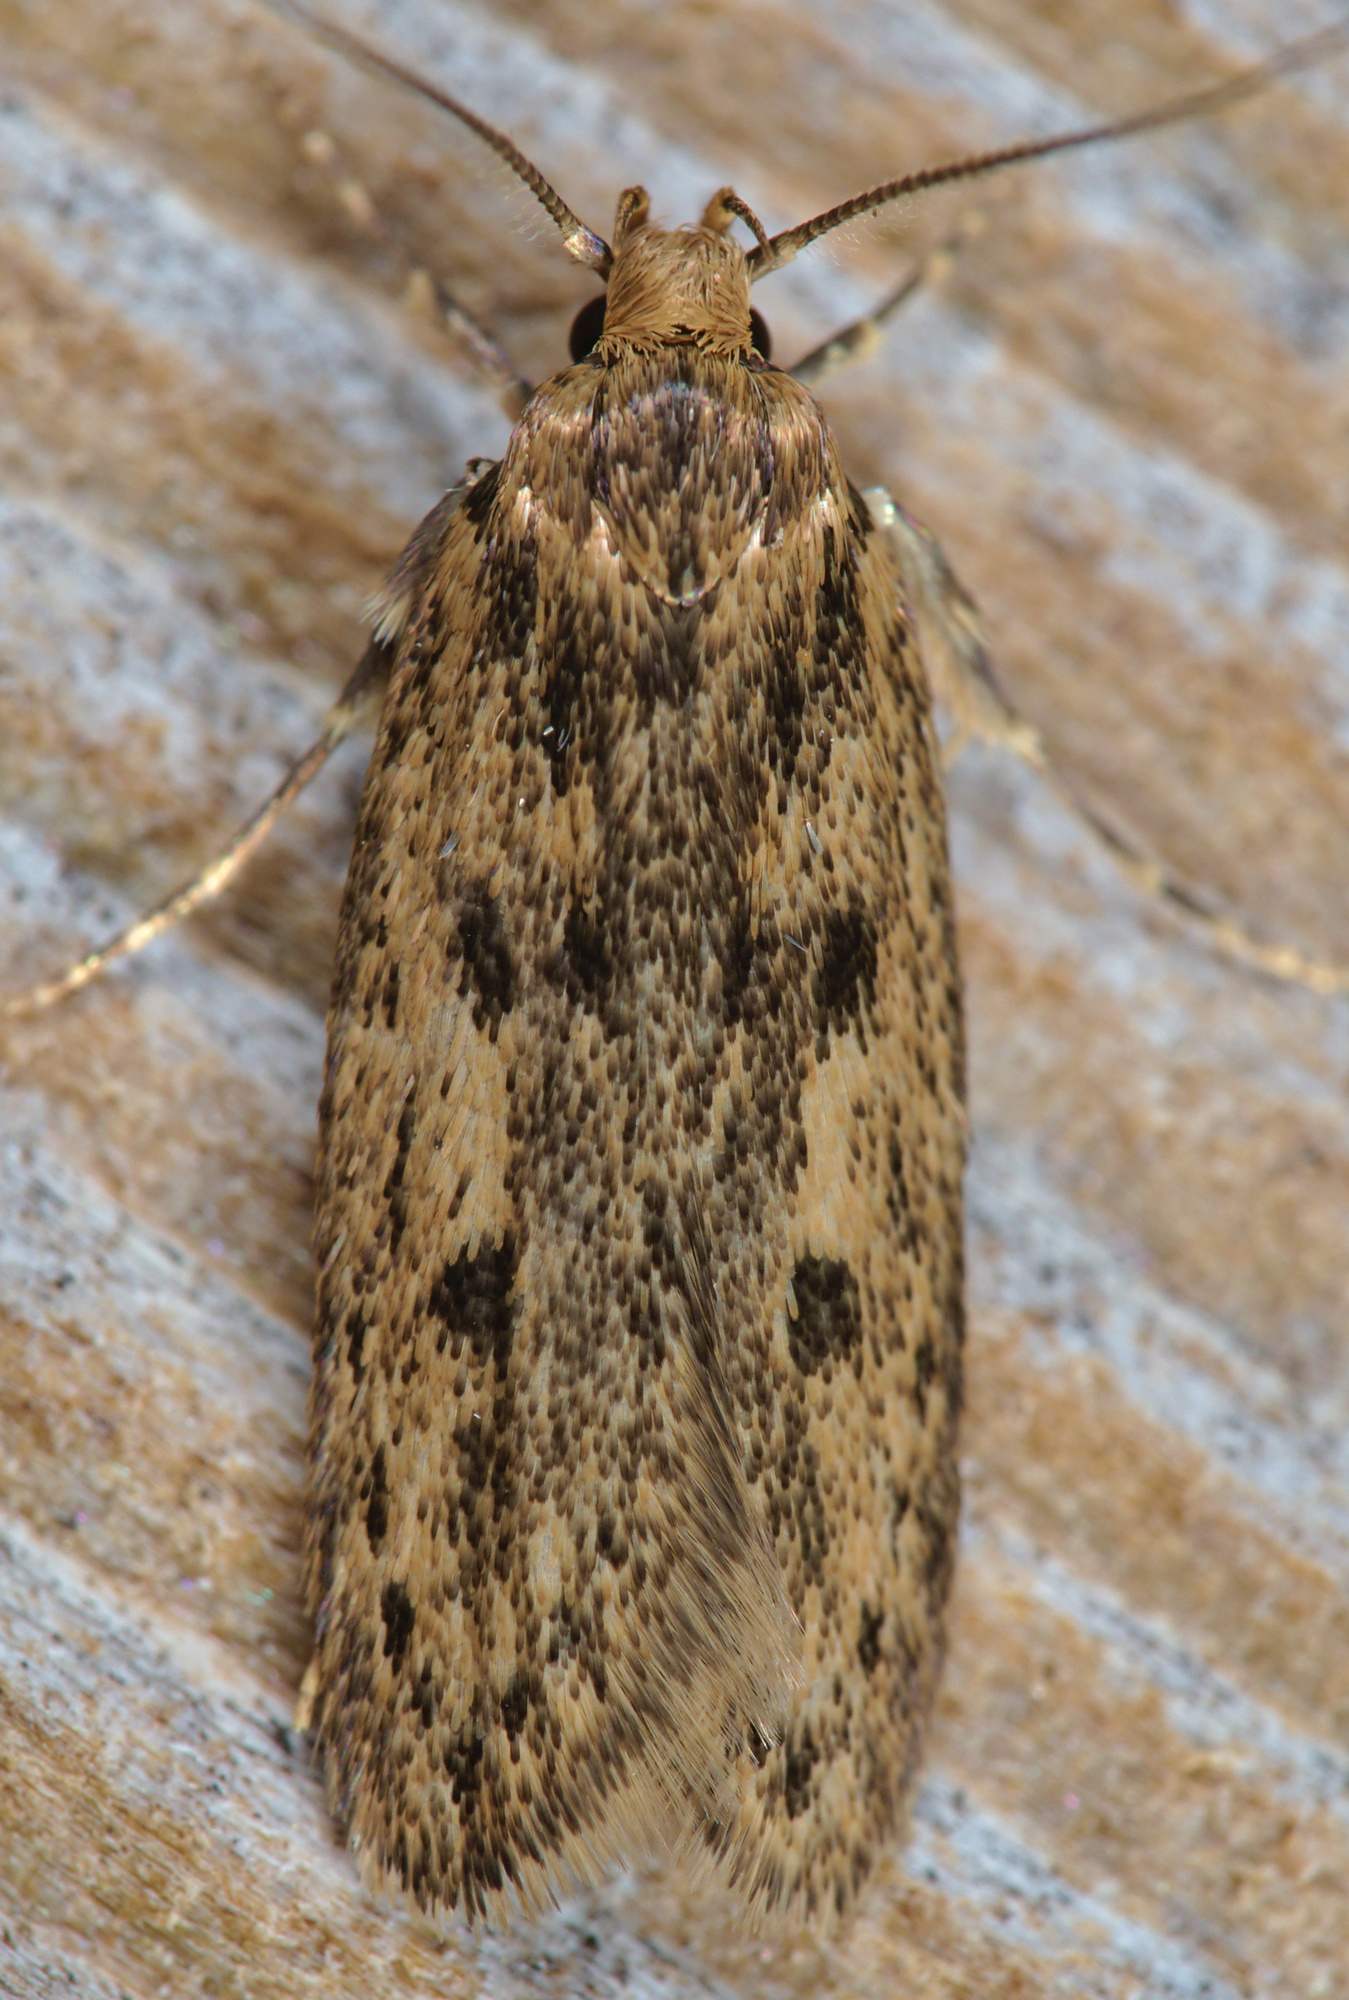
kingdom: Animalia
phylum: Arthropoda
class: Insecta
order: Lepidoptera
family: Oecophoridae
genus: Hofmannophila
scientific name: Hofmannophila pseudospretella
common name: Brown house moth
